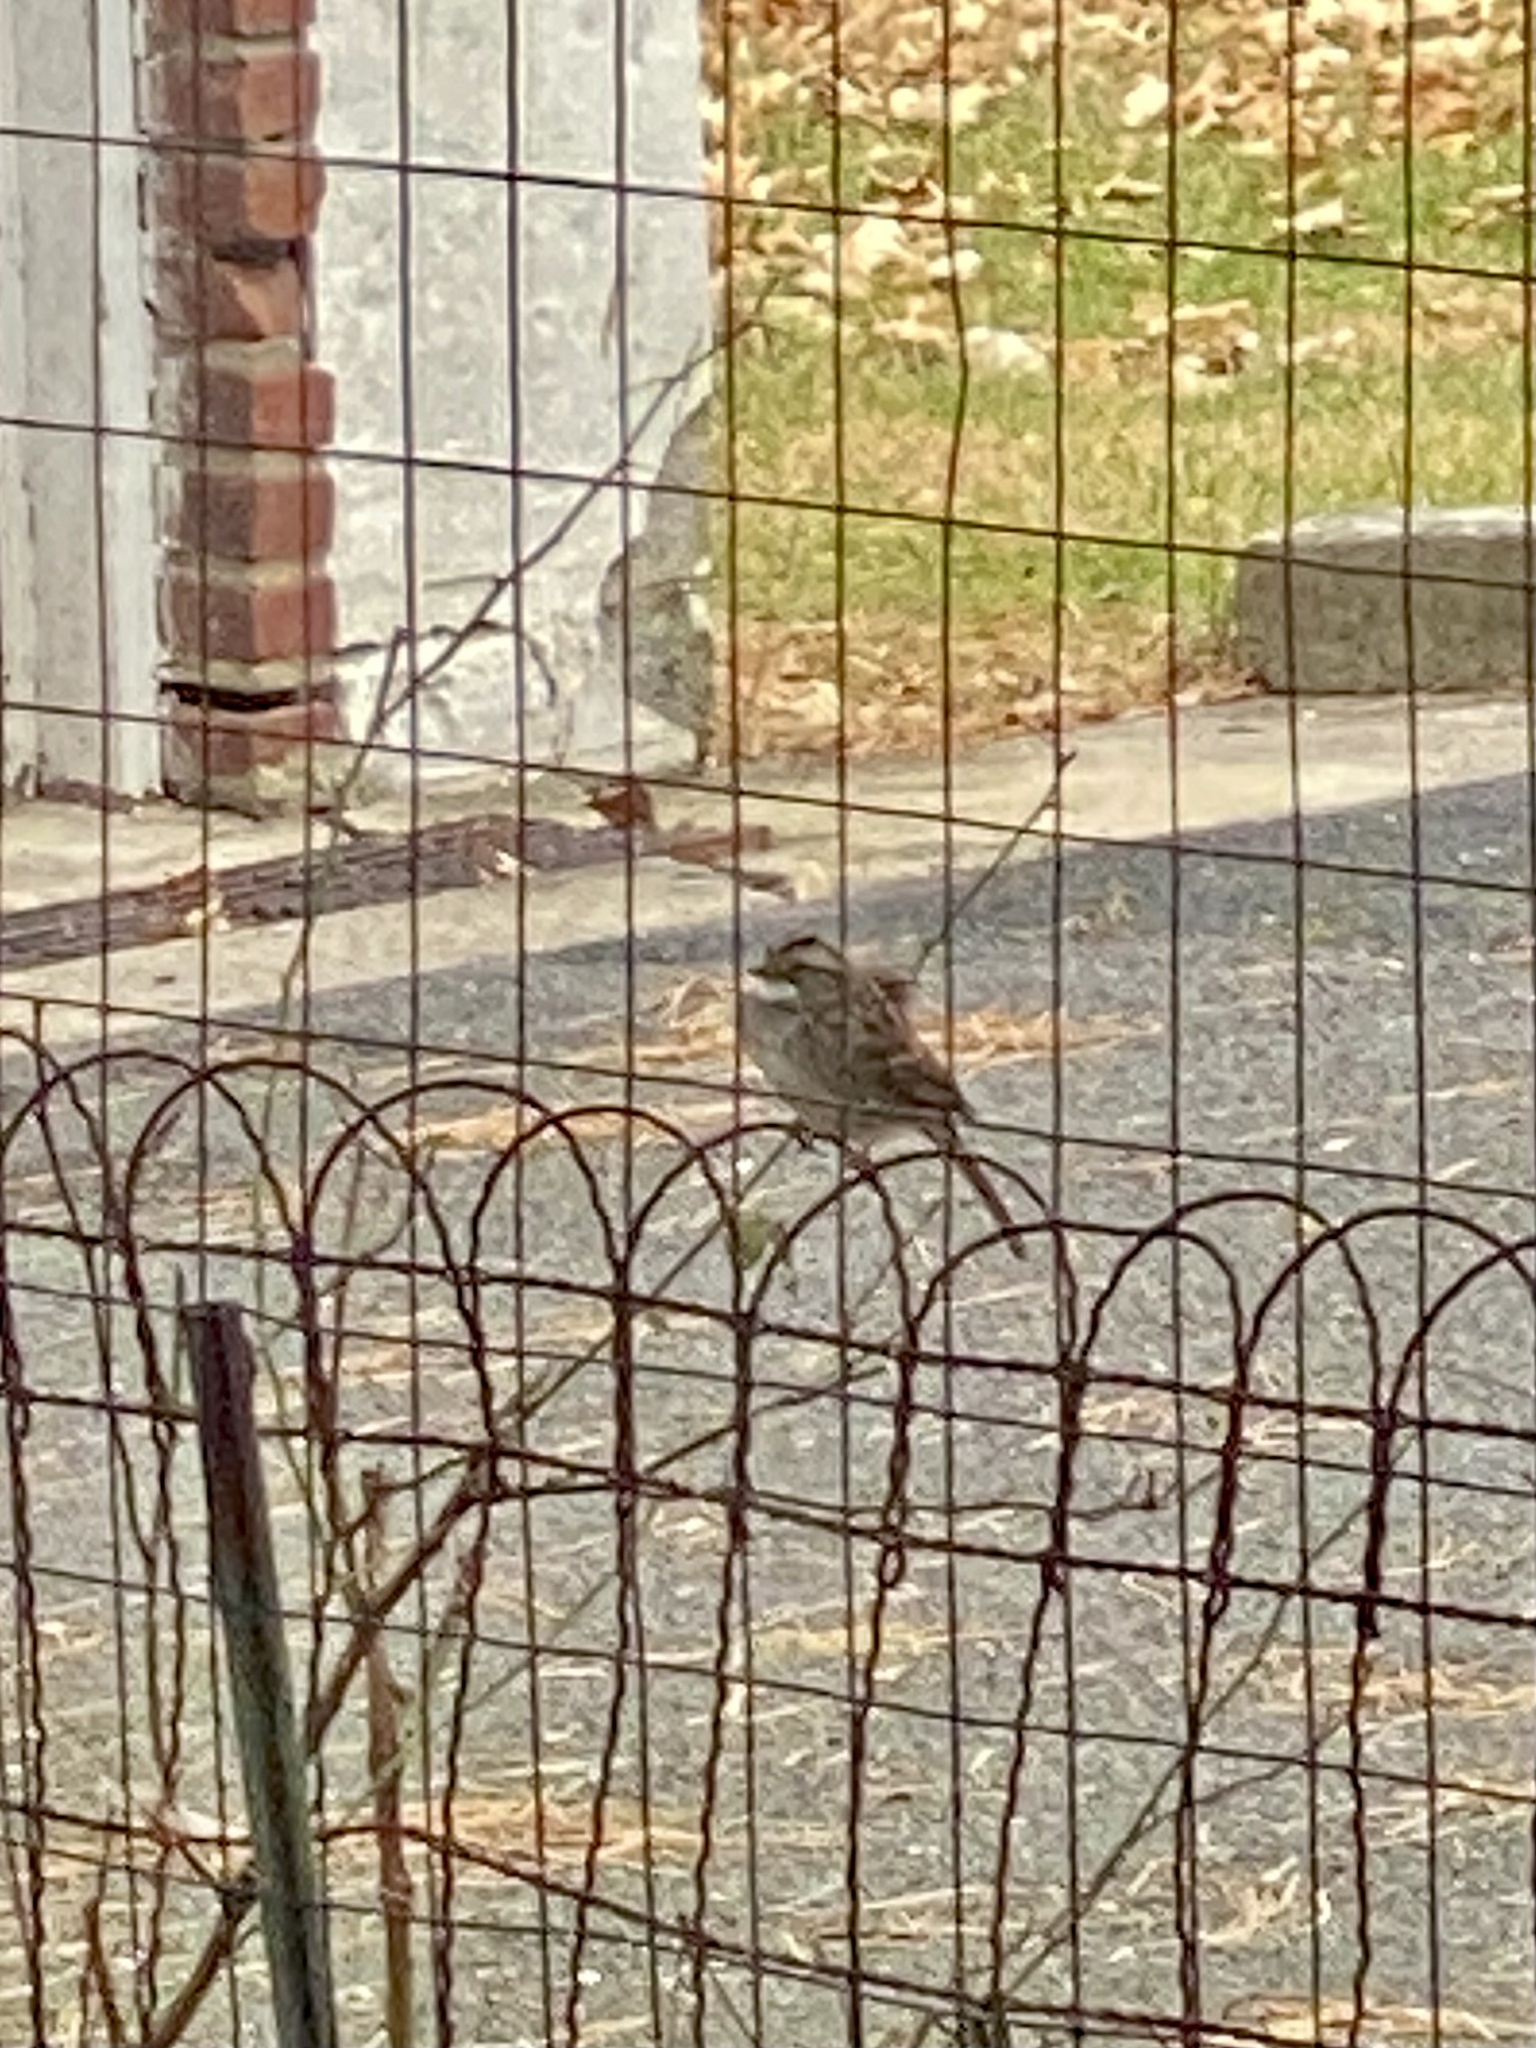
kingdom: Animalia
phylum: Chordata
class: Aves
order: Passeriformes
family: Passerellidae
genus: Zonotrichia
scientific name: Zonotrichia albicollis
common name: White-throated sparrow
